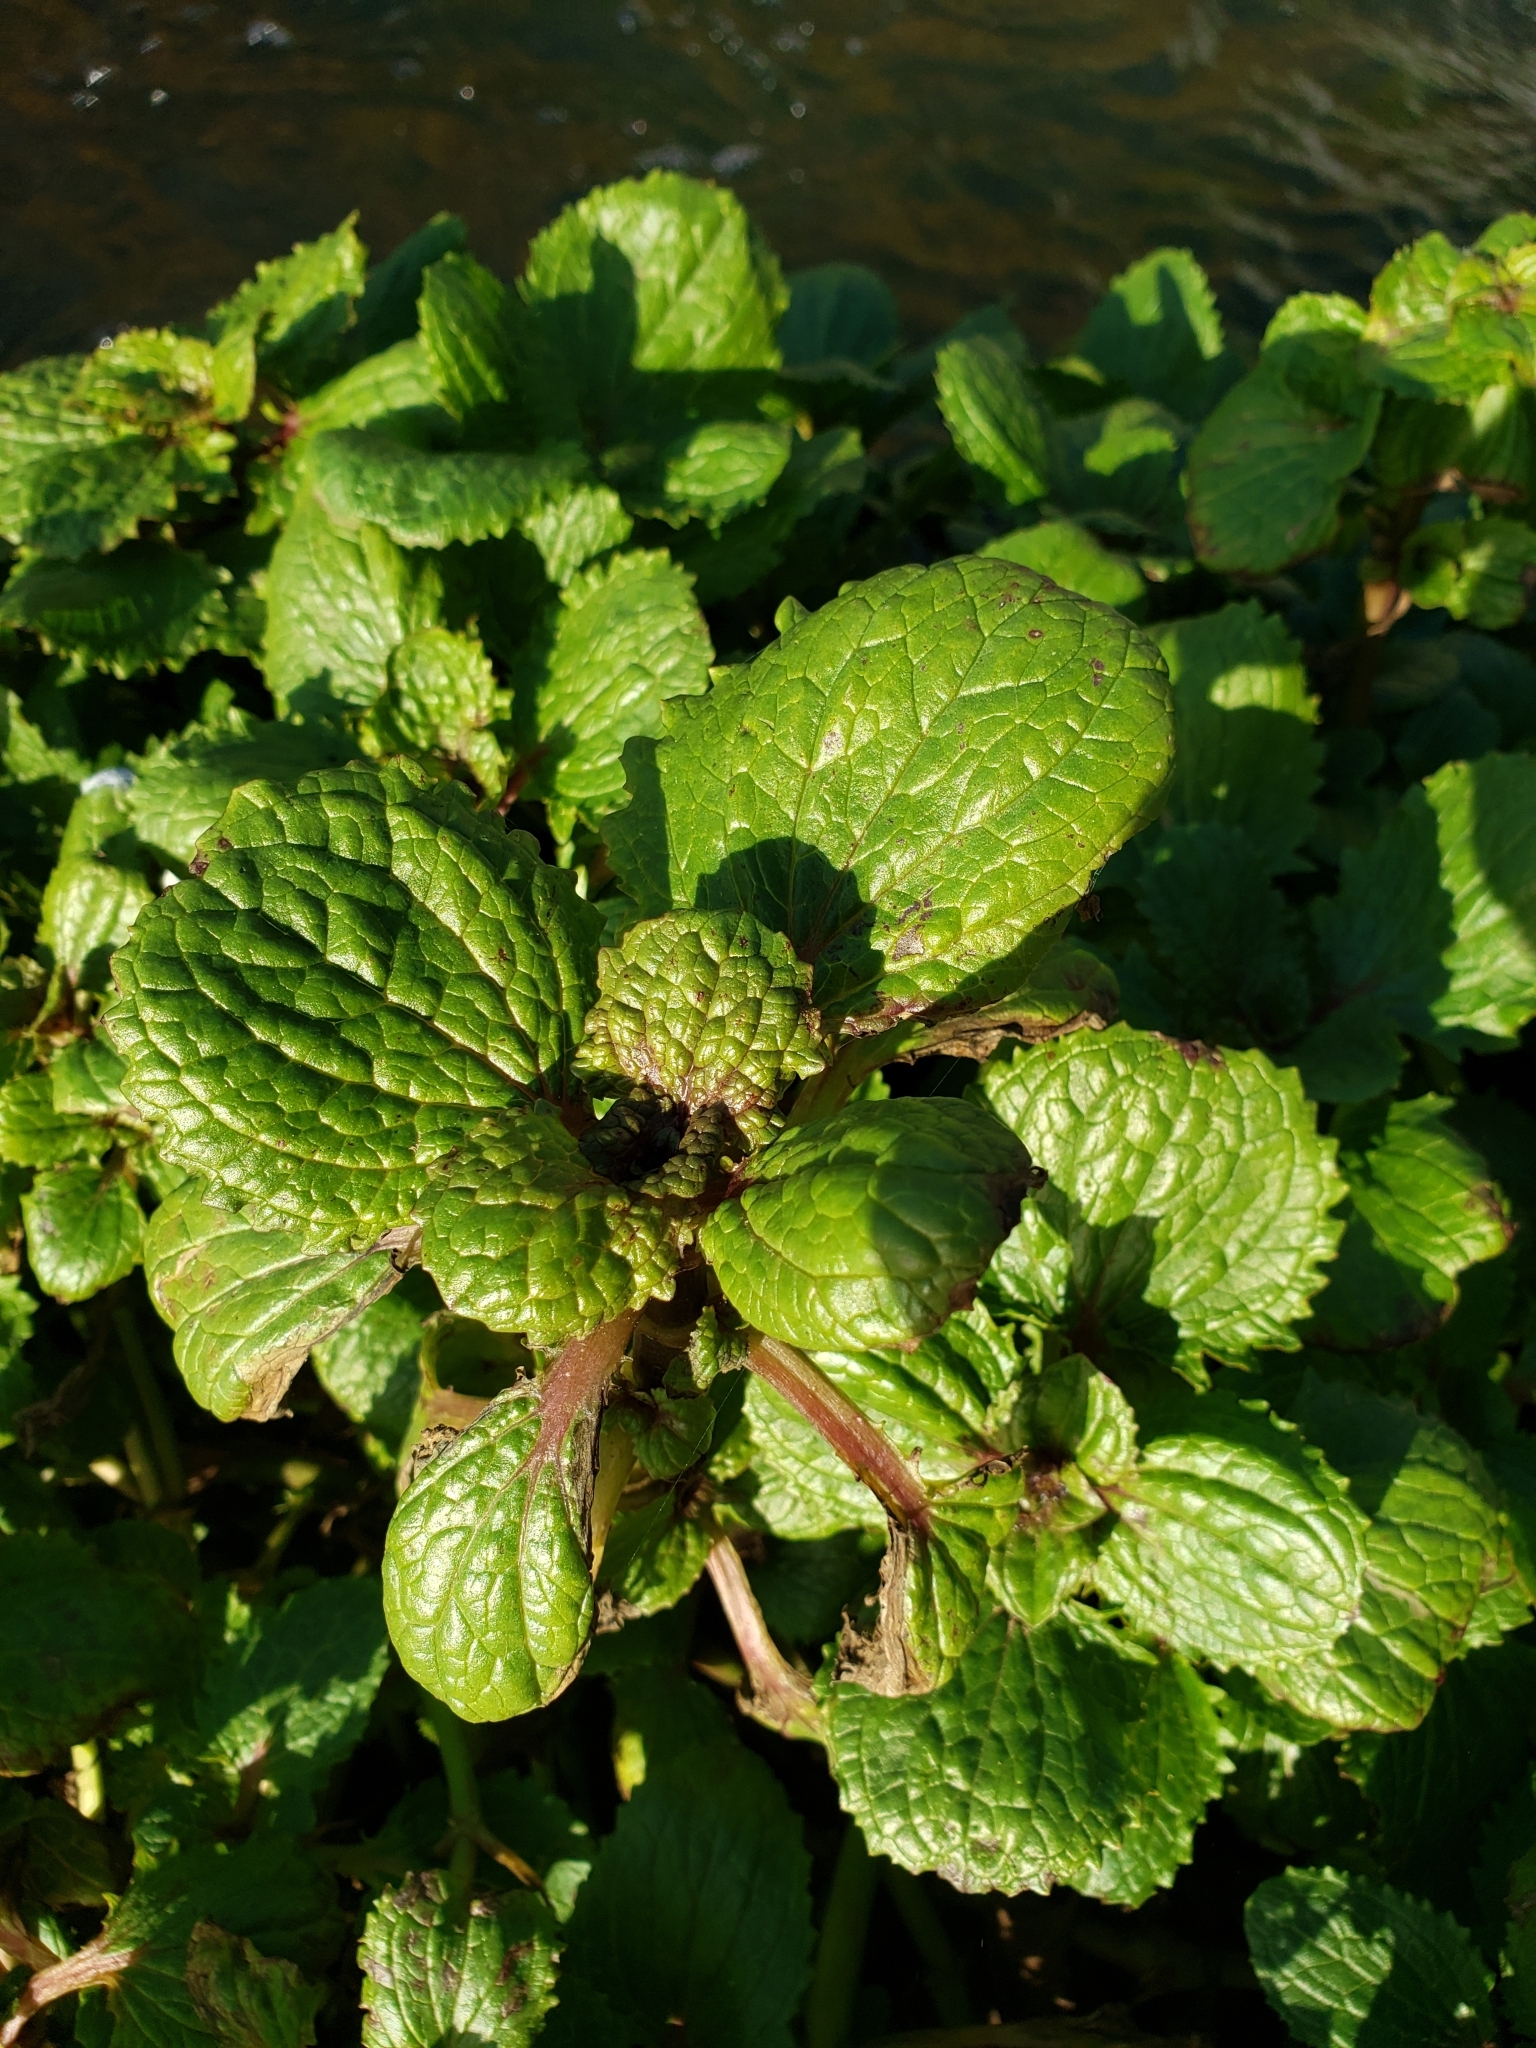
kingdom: Plantae
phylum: Tracheophyta
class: Magnoliopsida
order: Lamiales
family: Phrymaceae
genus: Erythranthe
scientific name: Erythranthe guttata
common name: Monkeyflower
